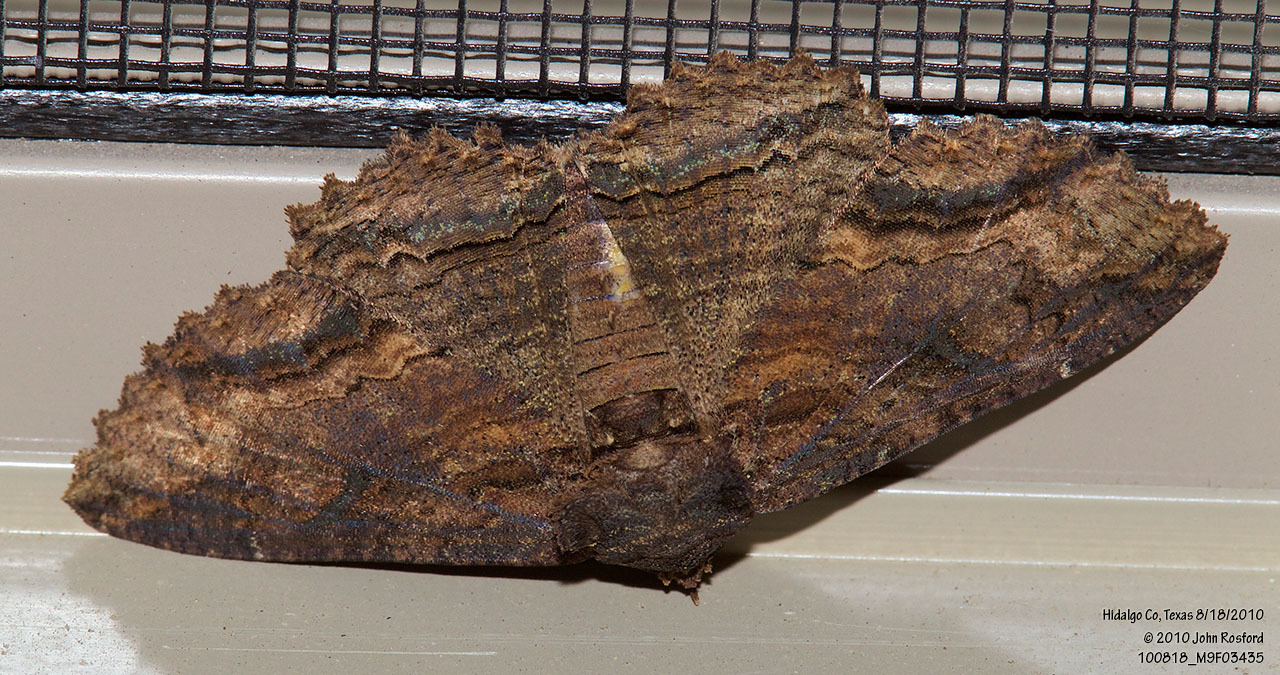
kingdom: Animalia
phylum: Arthropoda
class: Insecta
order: Lepidoptera
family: Erebidae
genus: Zale
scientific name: Zale lunata
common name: Lunate zale moth
